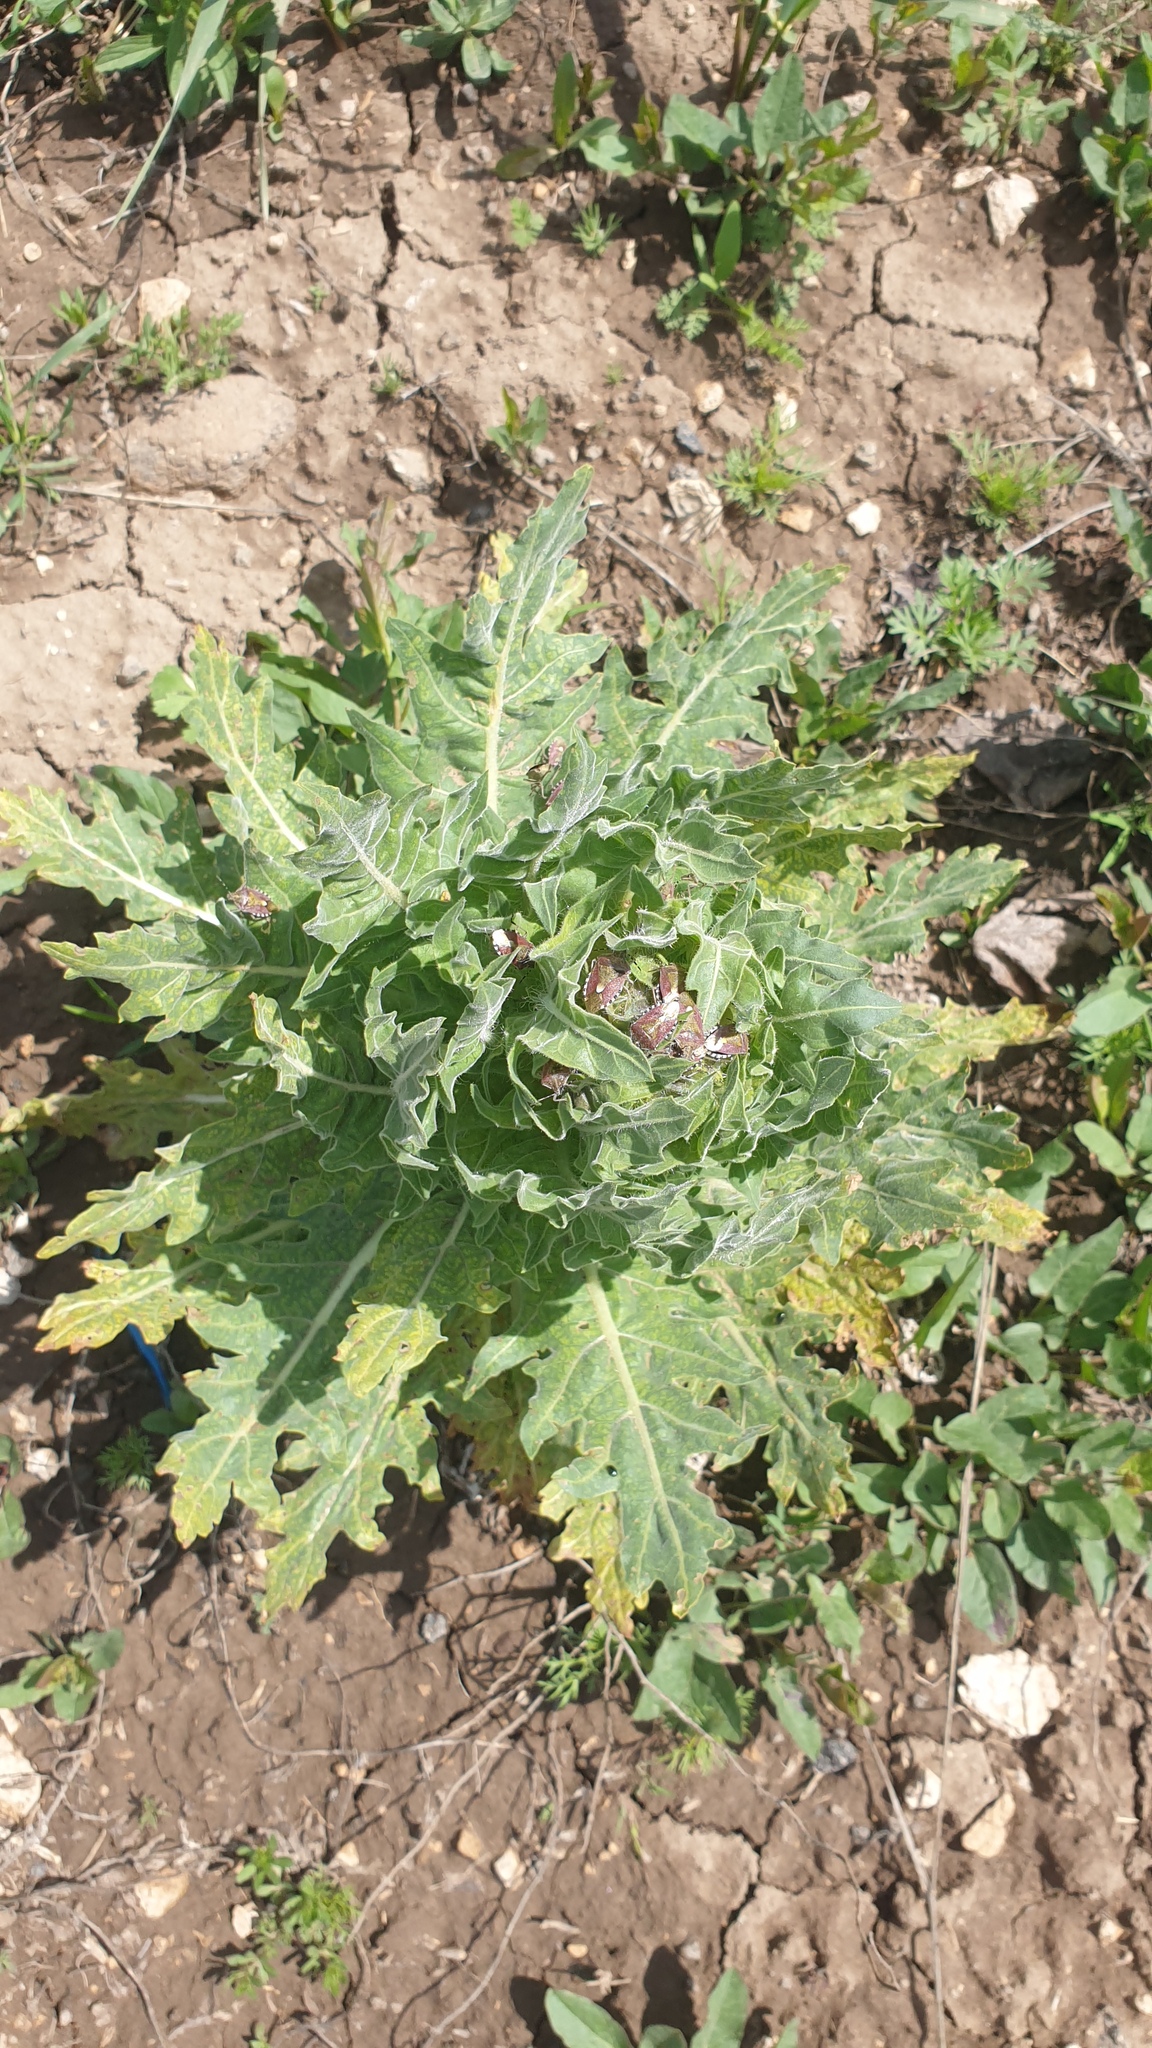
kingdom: Animalia
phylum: Arthropoda
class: Insecta
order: Hemiptera
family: Pentatomidae
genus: Dolycoris
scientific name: Dolycoris baccarum
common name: Sloe bug
